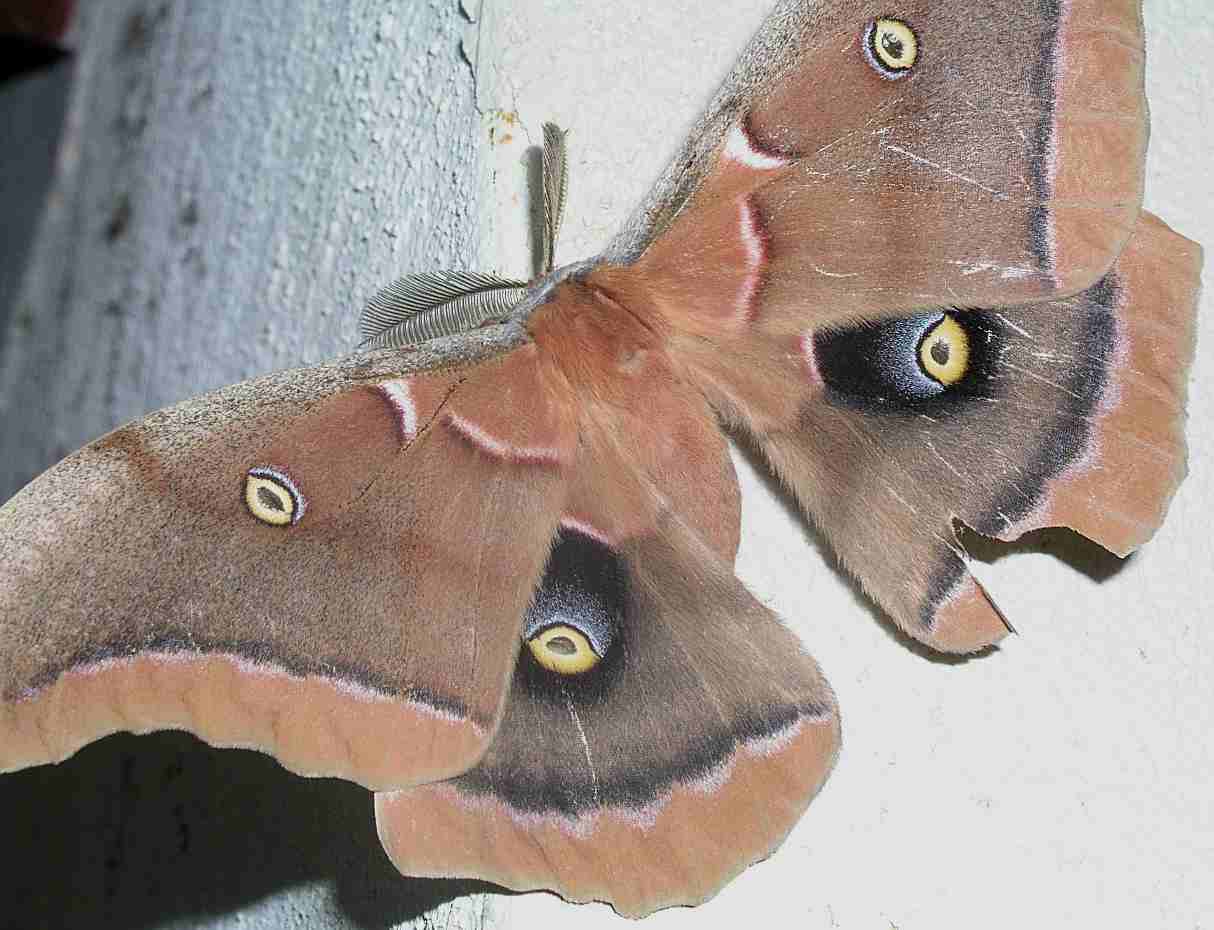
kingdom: Animalia
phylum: Arthropoda
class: Insecta
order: Lepidoptera
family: Saturniidae
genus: Antheraea
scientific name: Antheraea polyphemus
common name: Polyphemus moth
